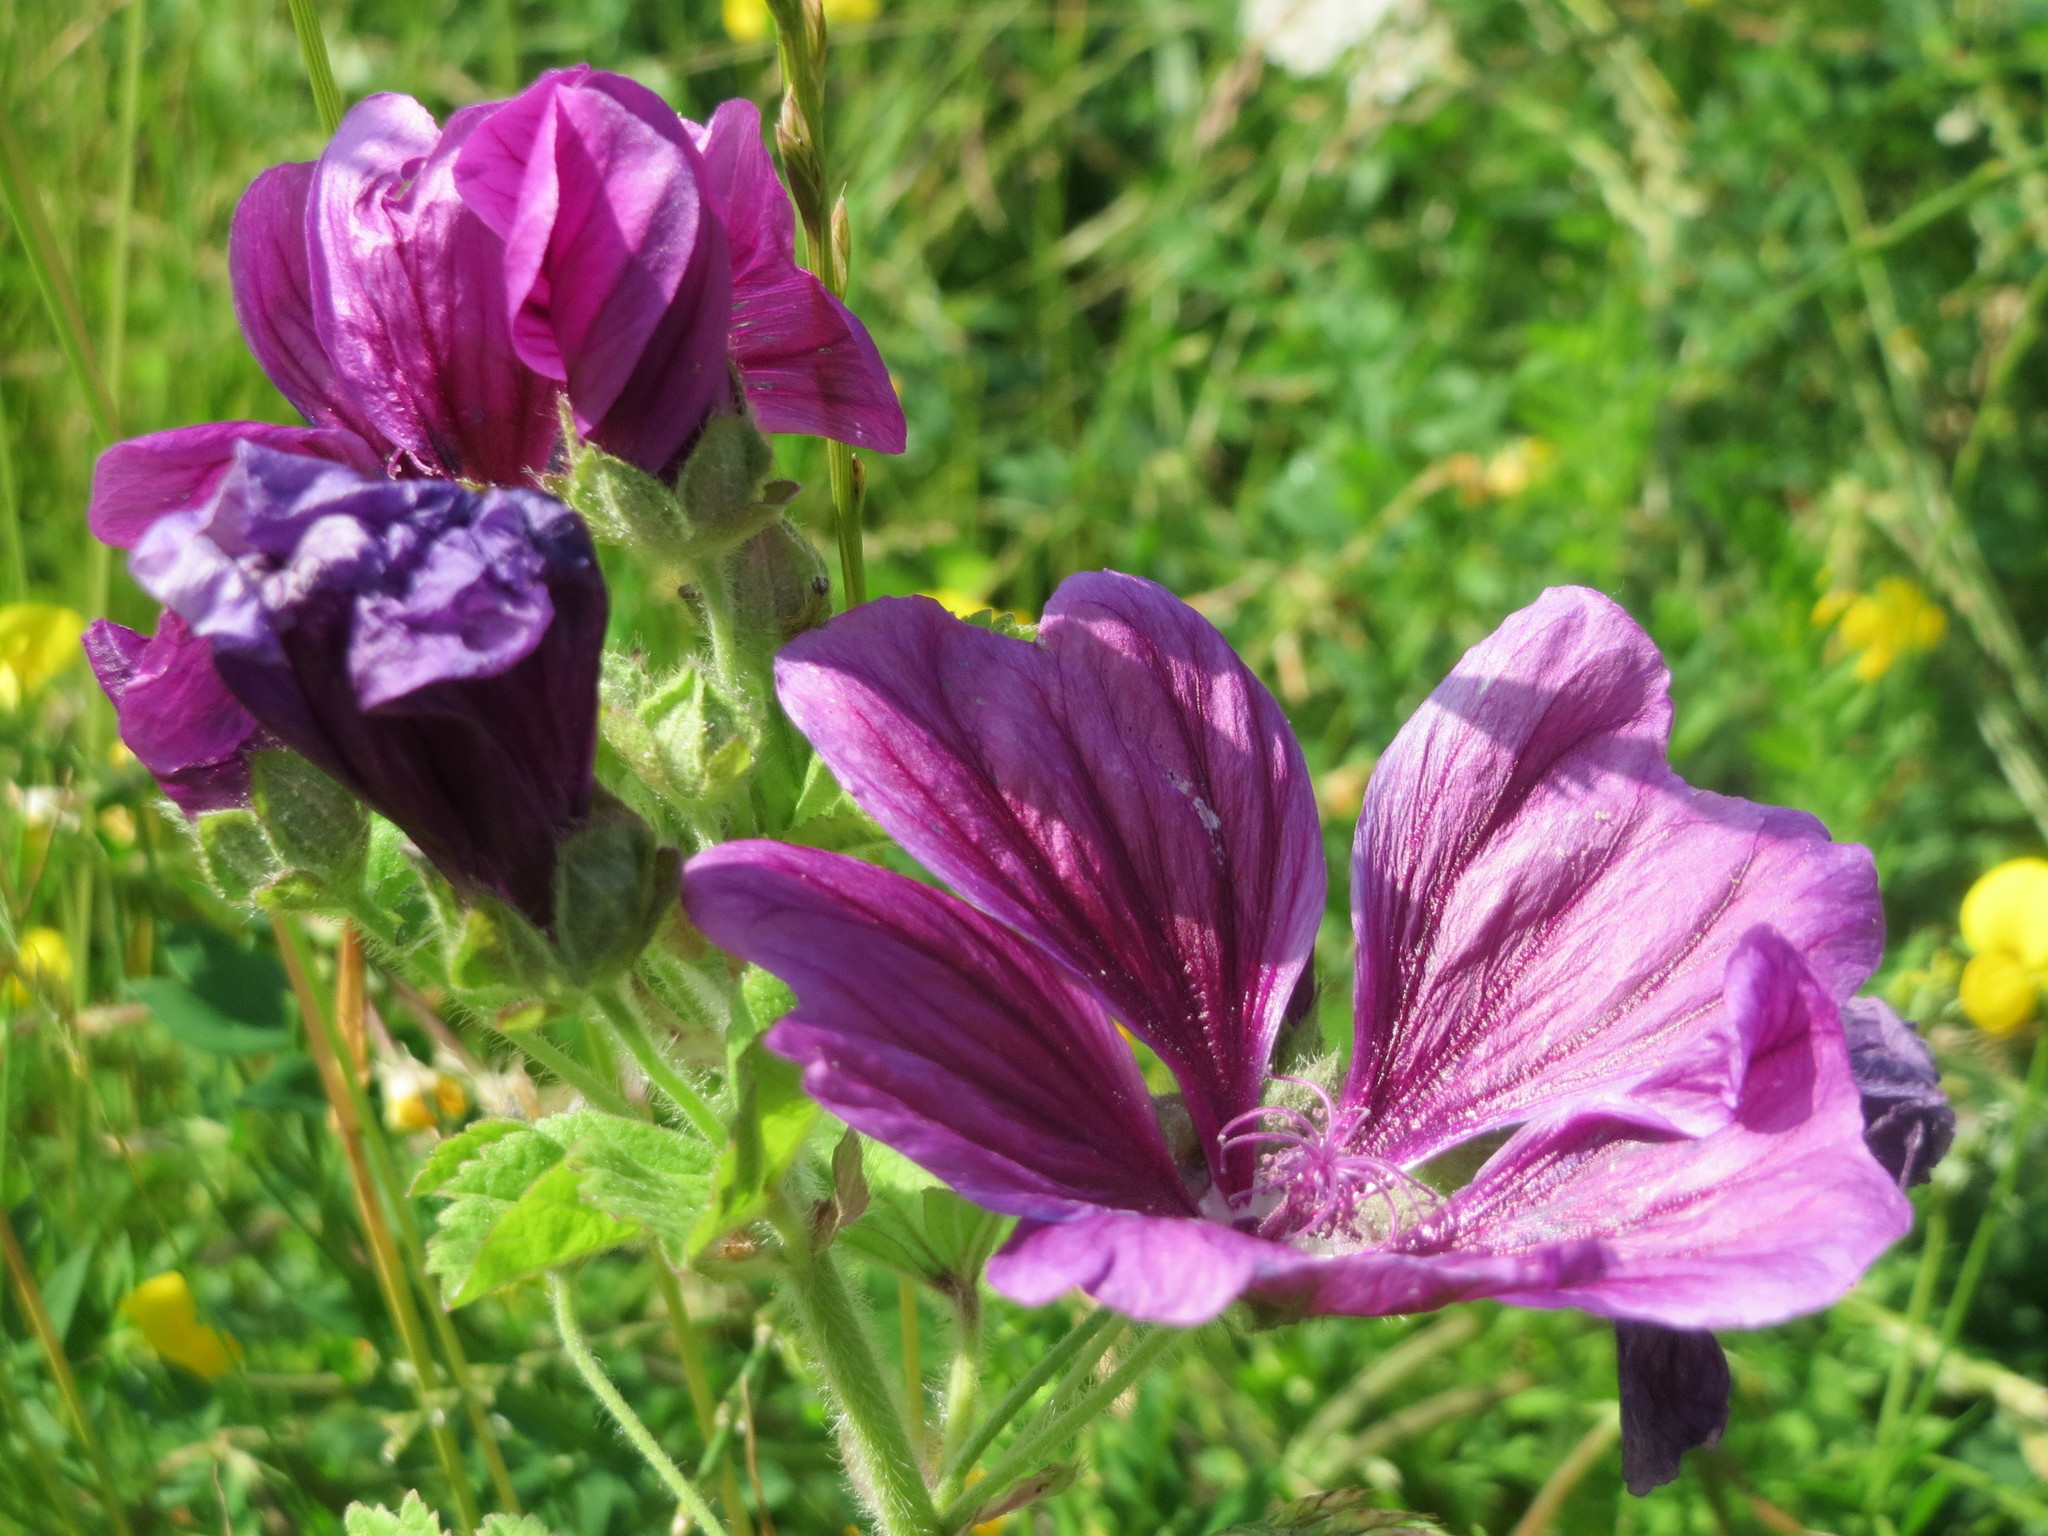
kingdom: Plantae
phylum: Tracheophyta
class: Magnoliopsida
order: Malvales
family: Malvaceae
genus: Malva
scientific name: Malva sylvestris
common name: Common mallow
